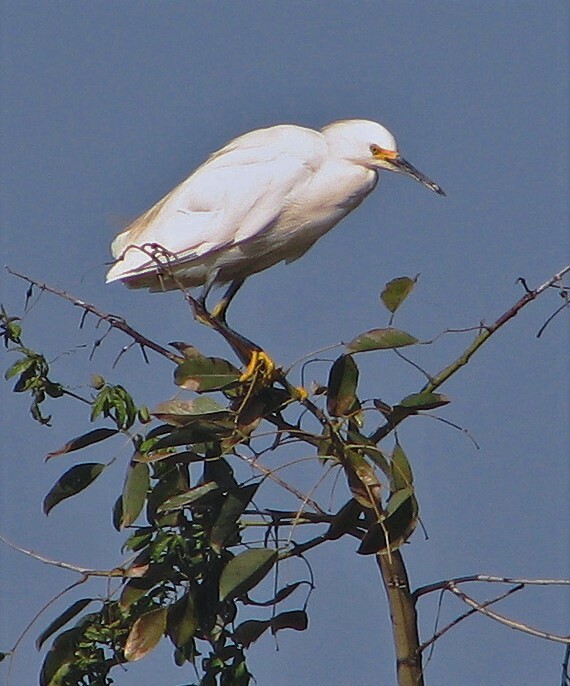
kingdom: Animalia
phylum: Chordata
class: Aves
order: Pelecaniformes
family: Ardeidae
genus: Egretta
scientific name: Egretta thula
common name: Snowy egret
